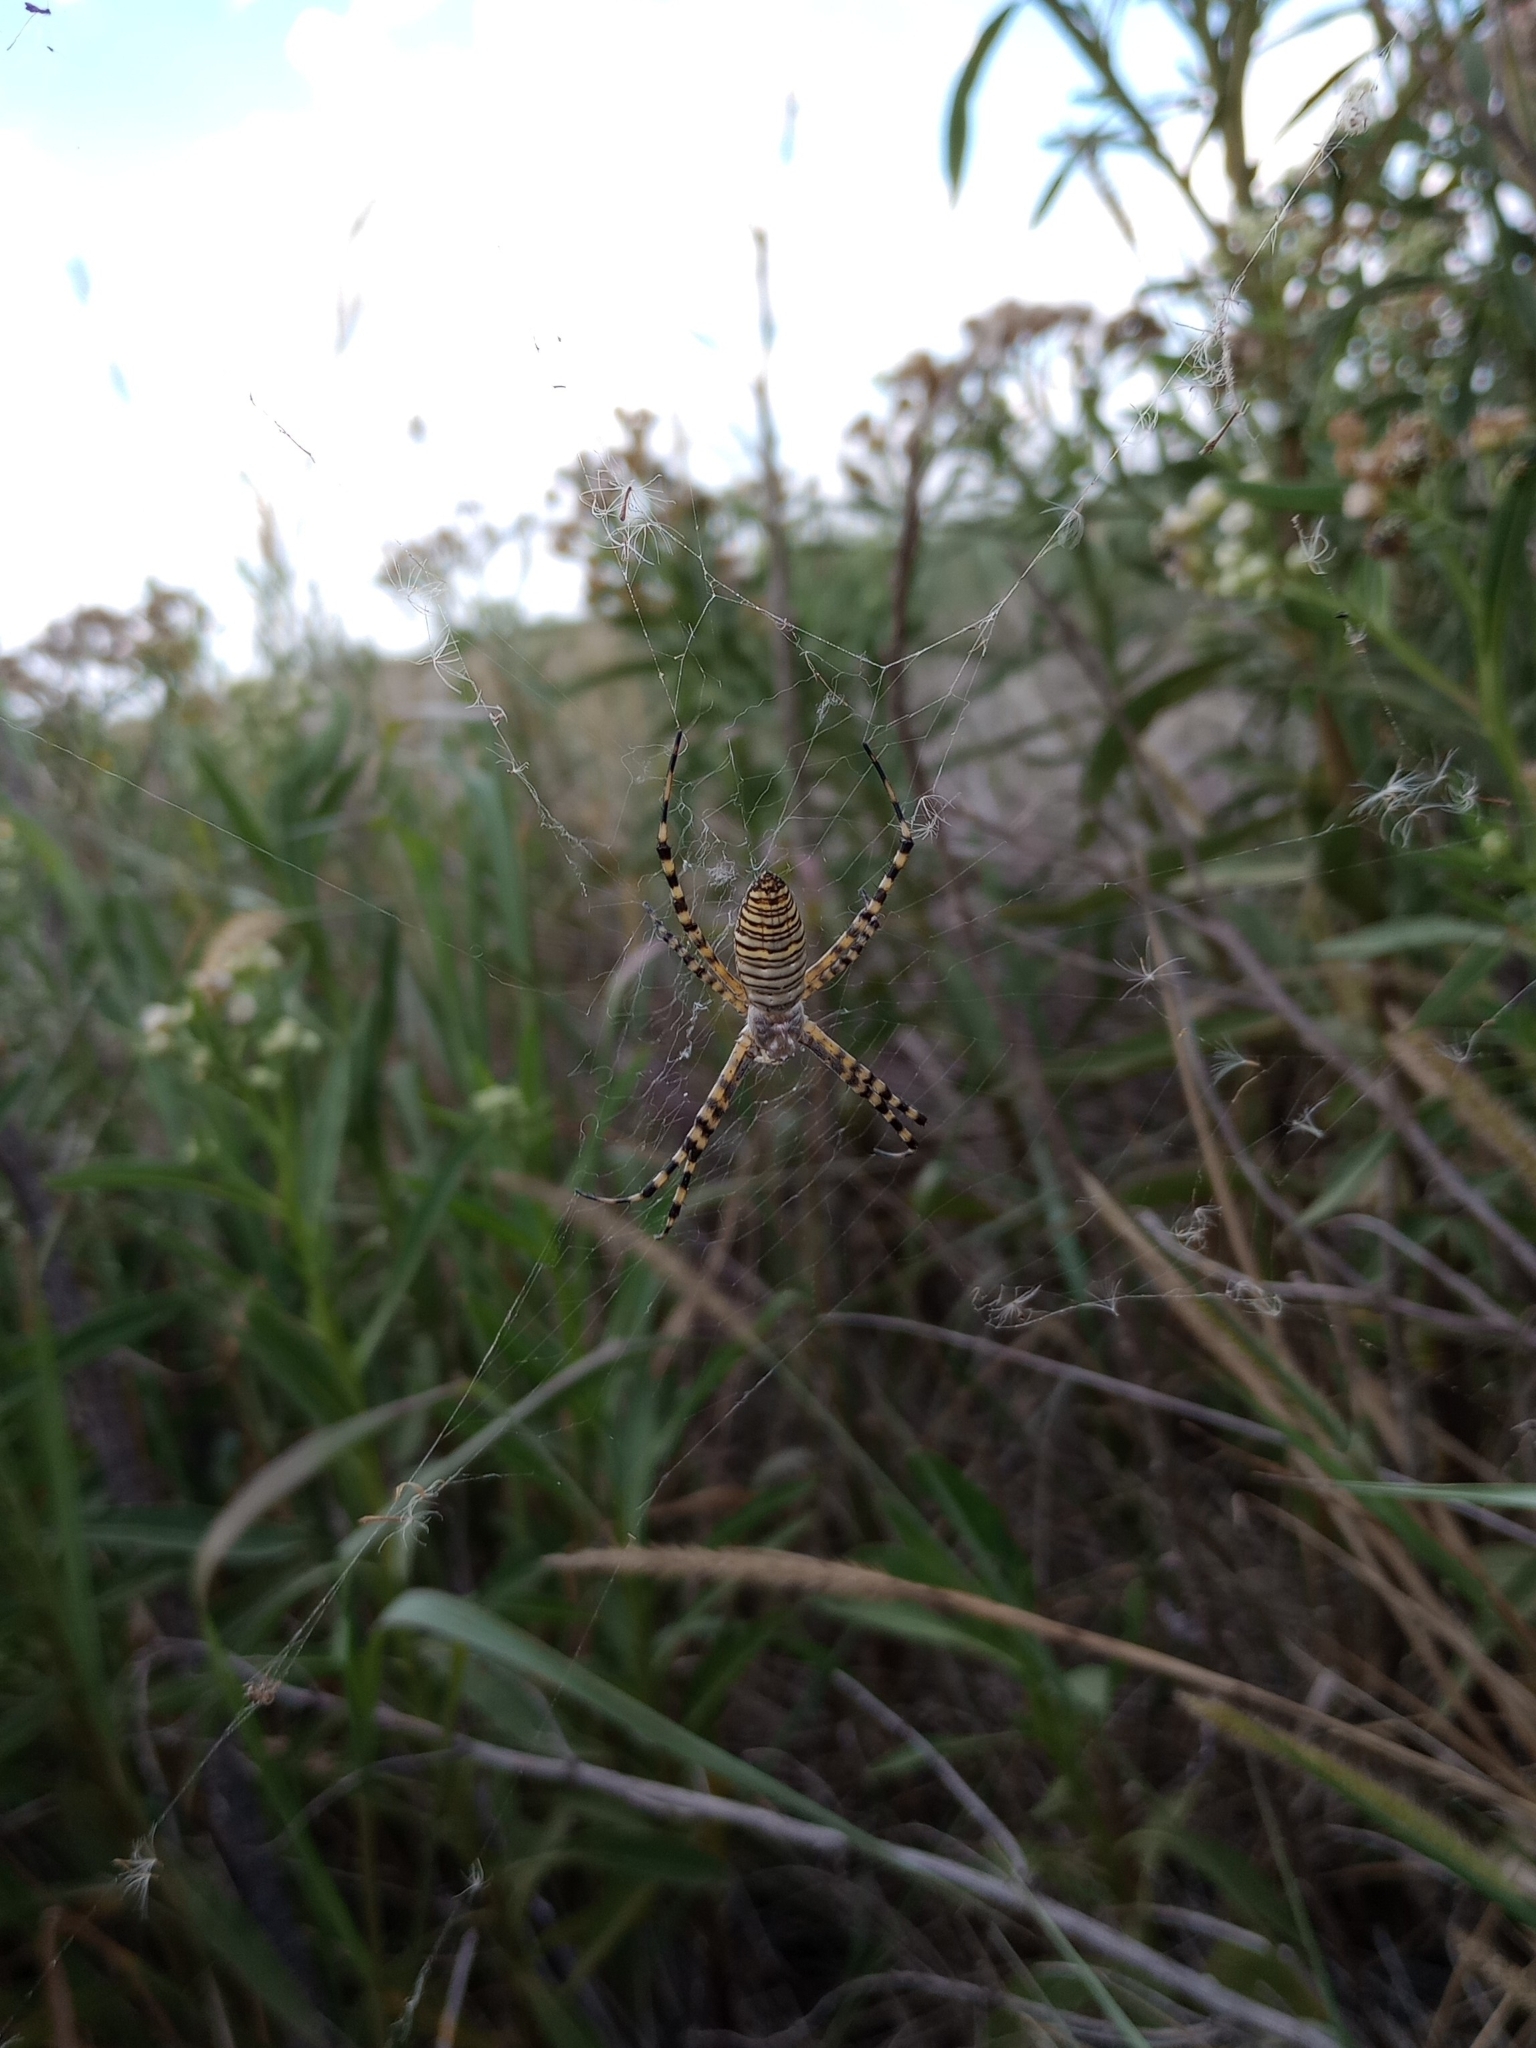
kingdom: Animalia
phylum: Arthropoda
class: Arachnida
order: Araneae
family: Araneidae
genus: Argiope
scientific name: Argiope trifasciata
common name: Banded garden spider
